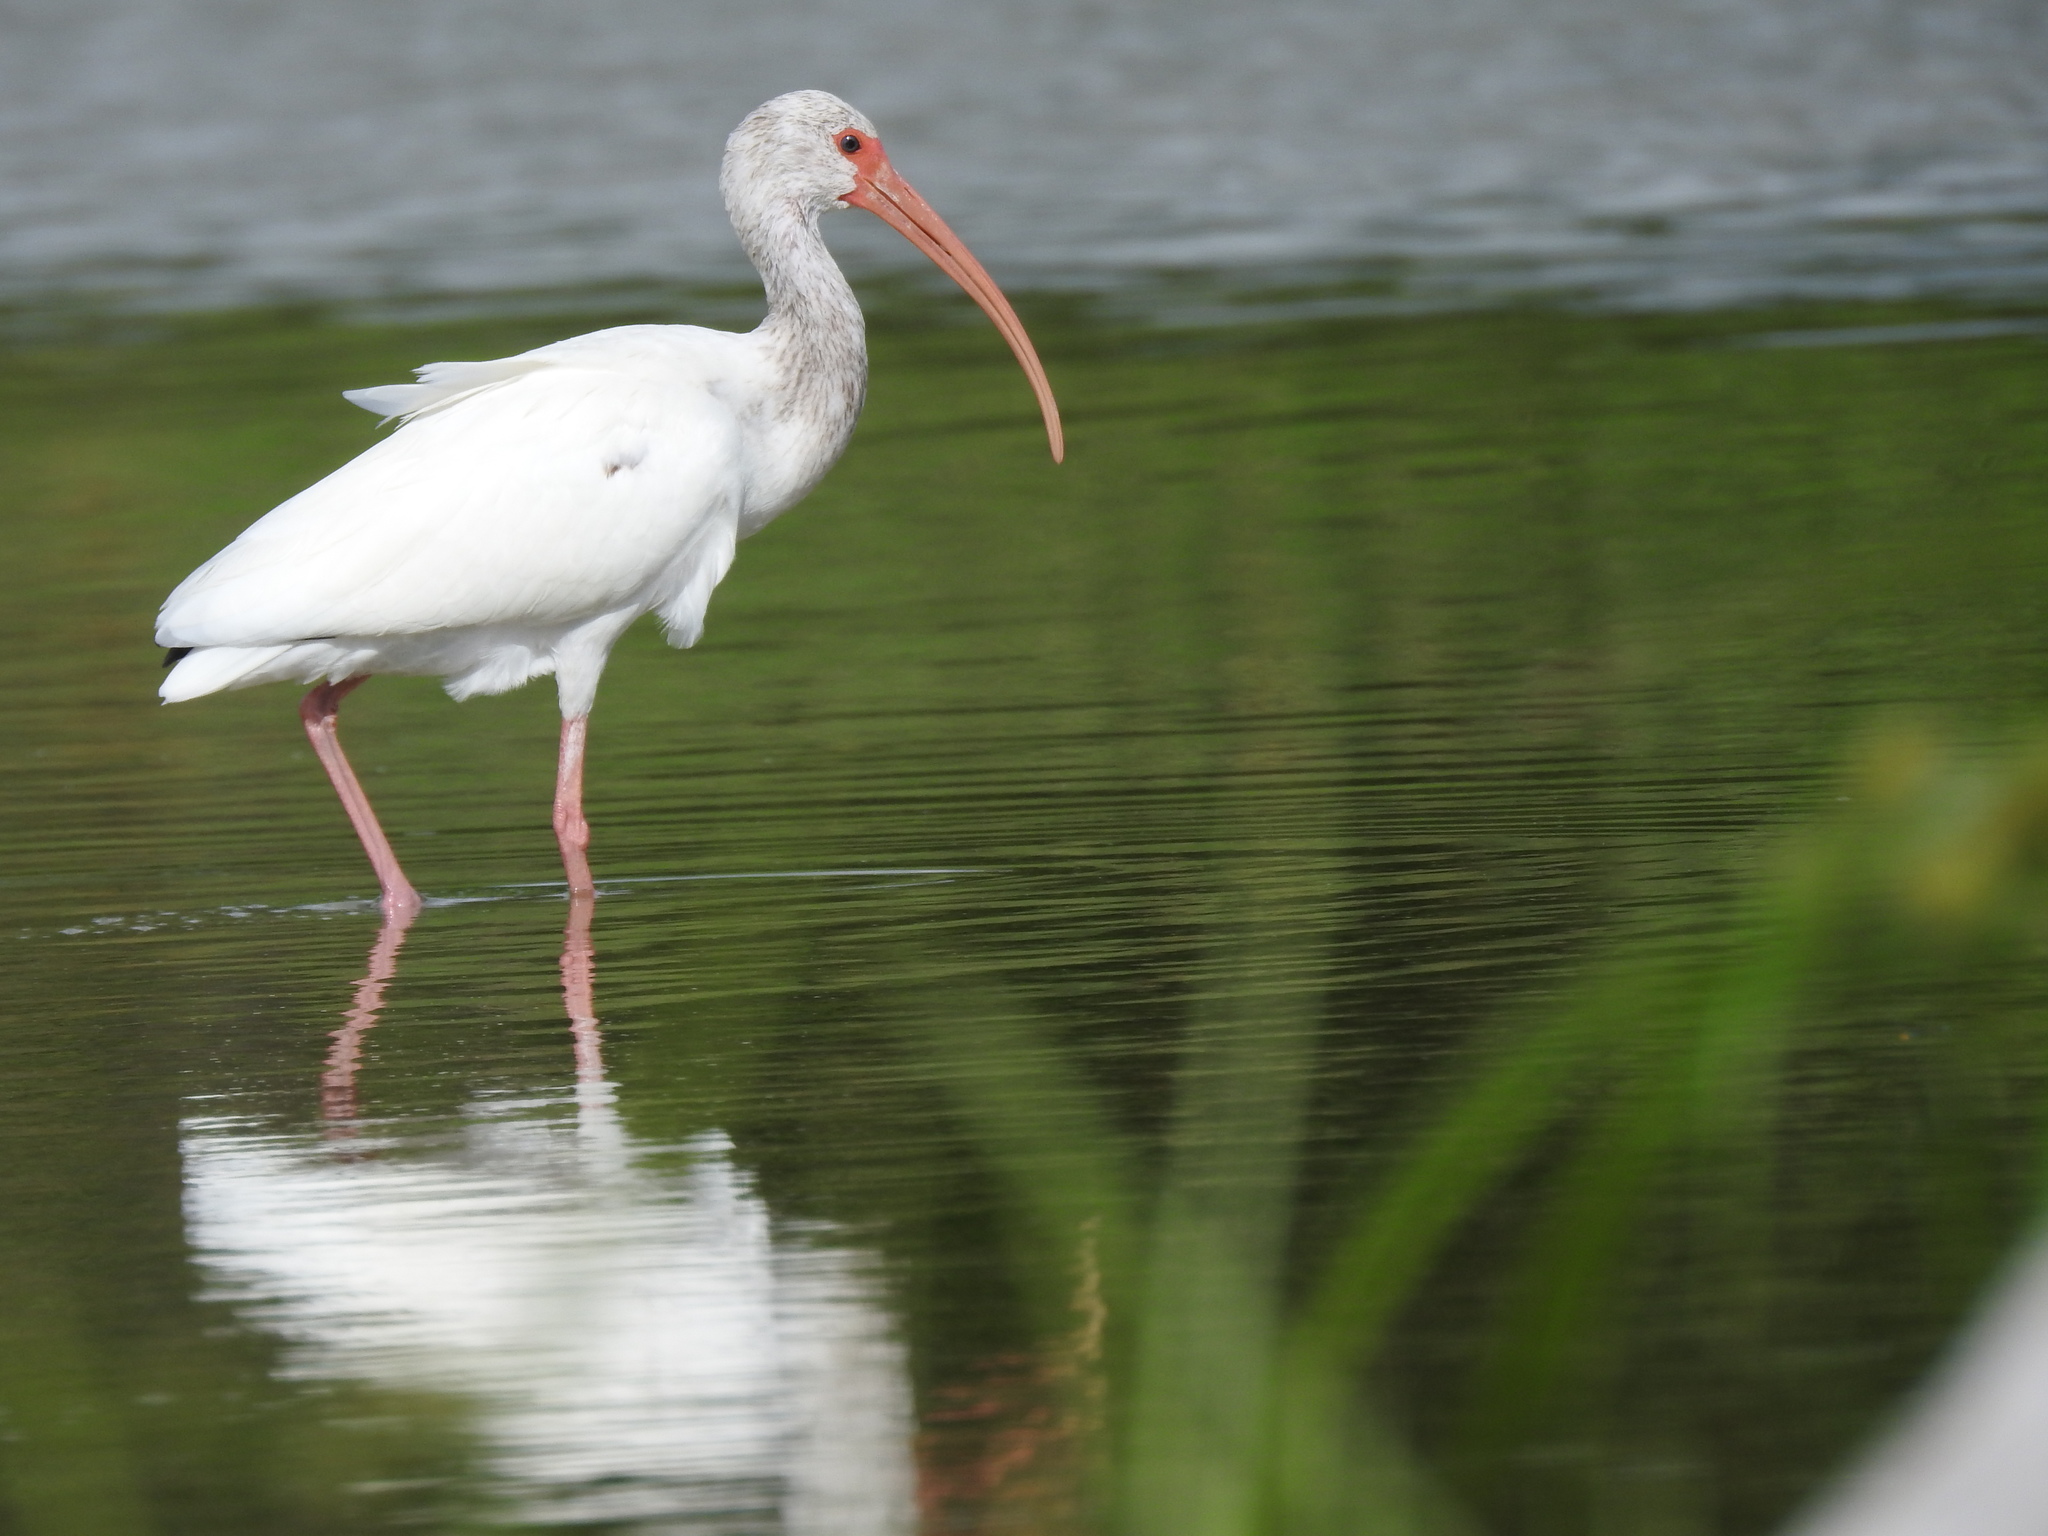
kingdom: Animalia
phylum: Chordata
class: Aves
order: Pelecaniformes
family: Threskiornithidae
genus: Eudocimus
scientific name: Eudocimus albus
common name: White ibis
